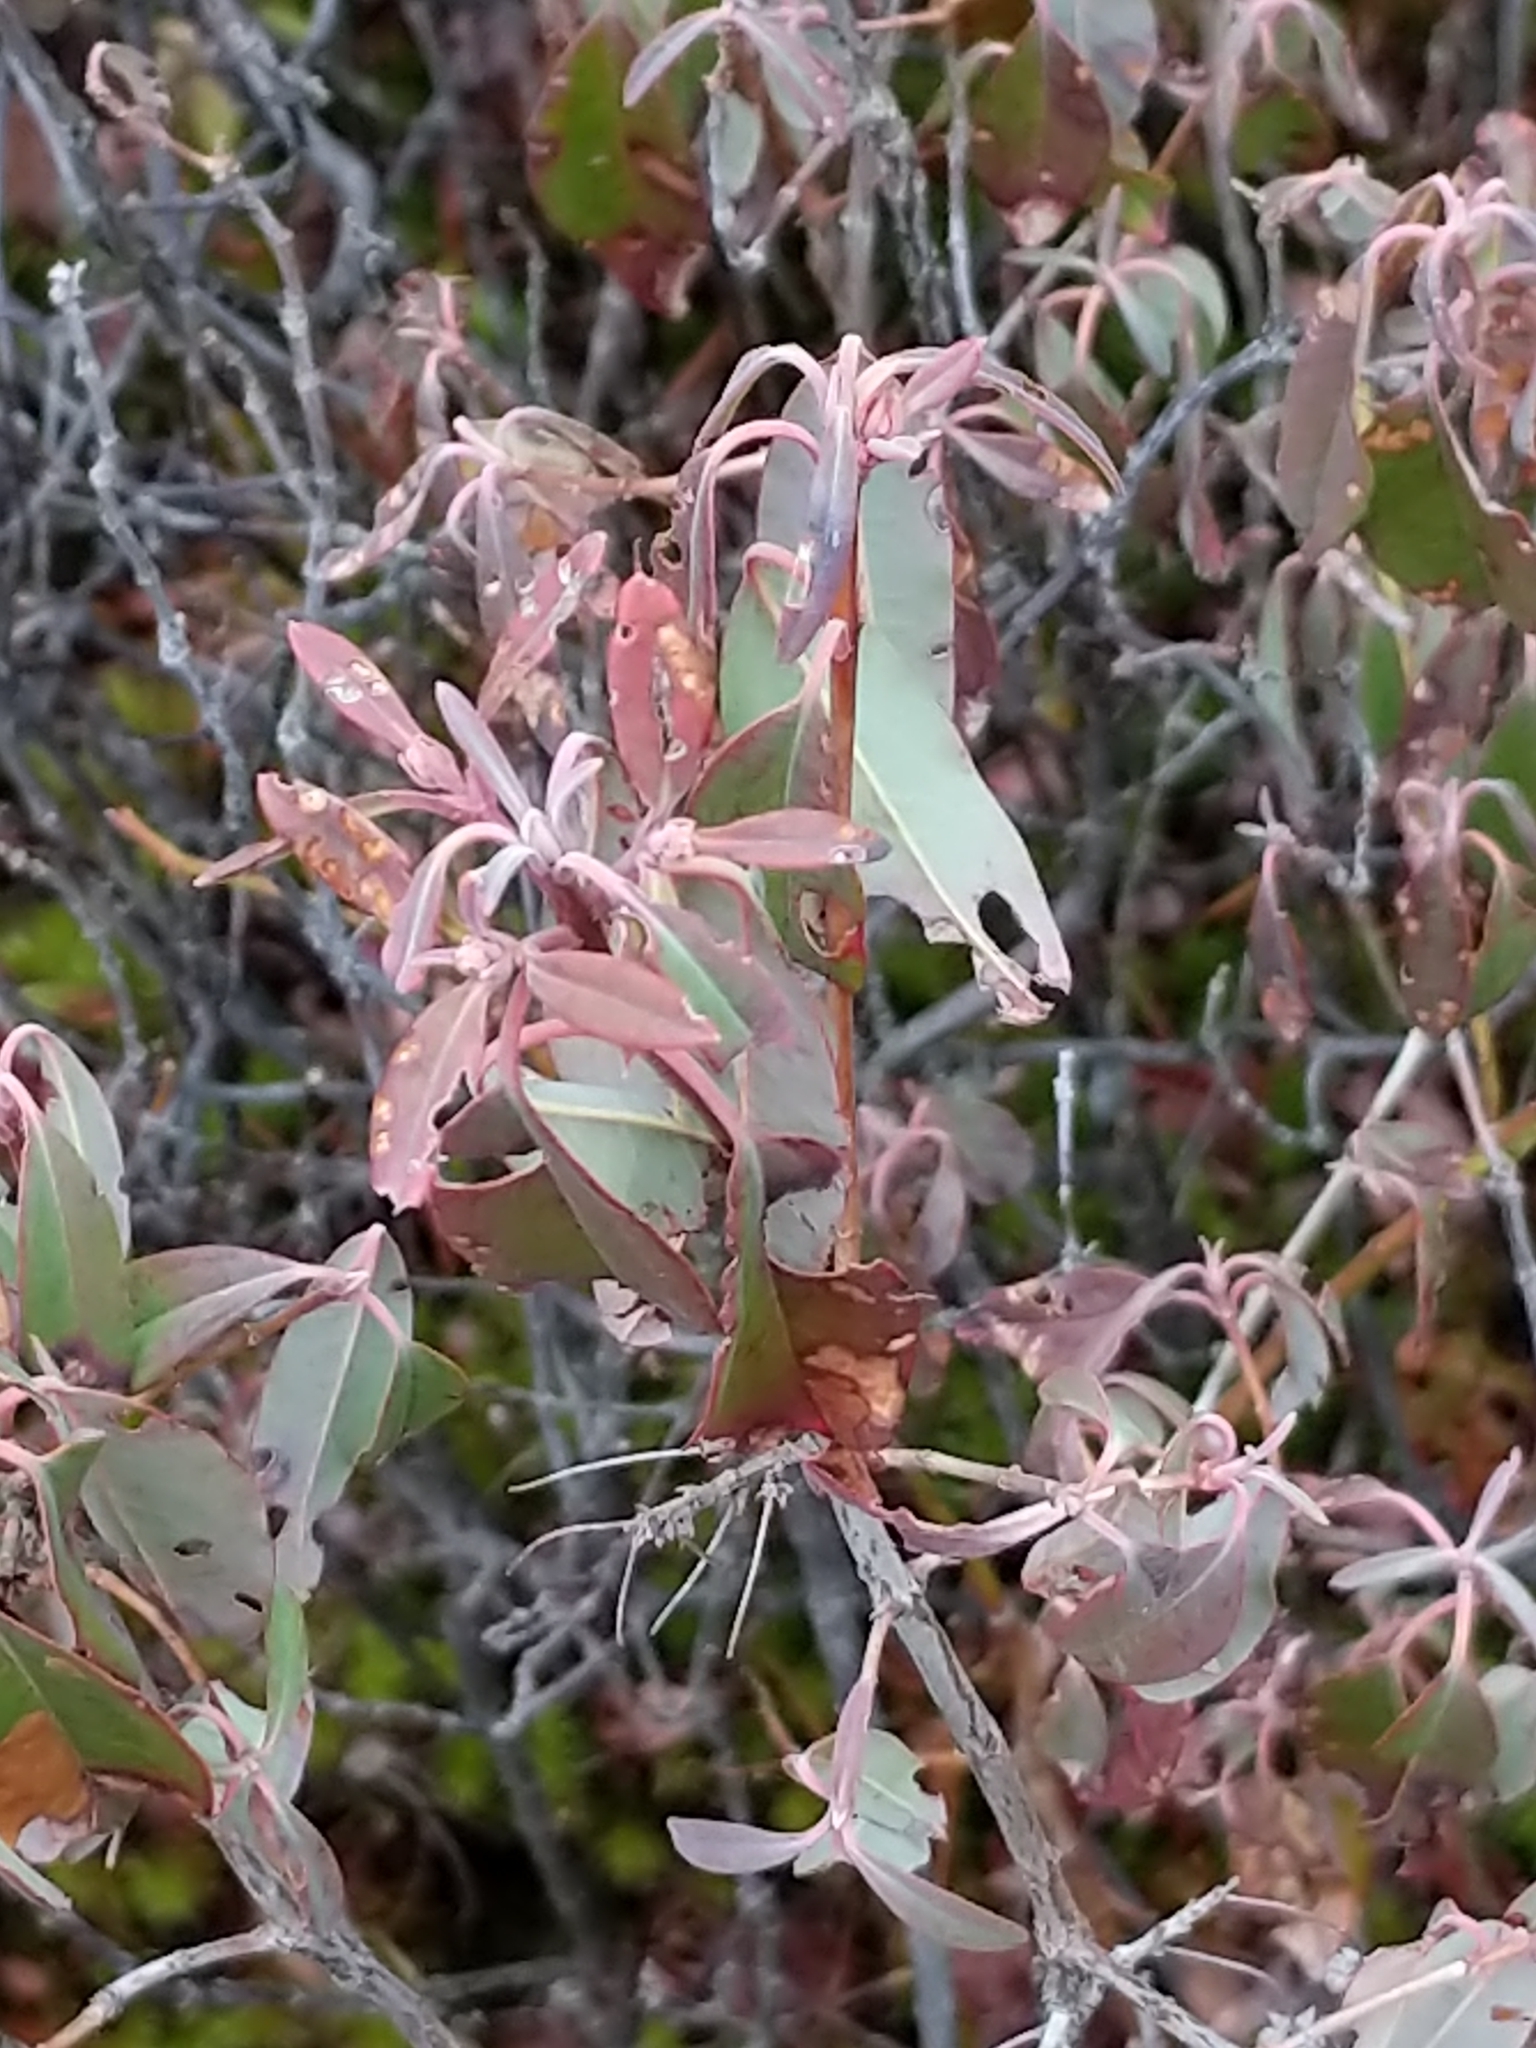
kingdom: Plantae
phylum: Tracheophyta
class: Magnoliopsida
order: Ericales
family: Ericaceae
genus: Kalmia
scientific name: Kalmia angustifolia
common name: Sheep-laurel
